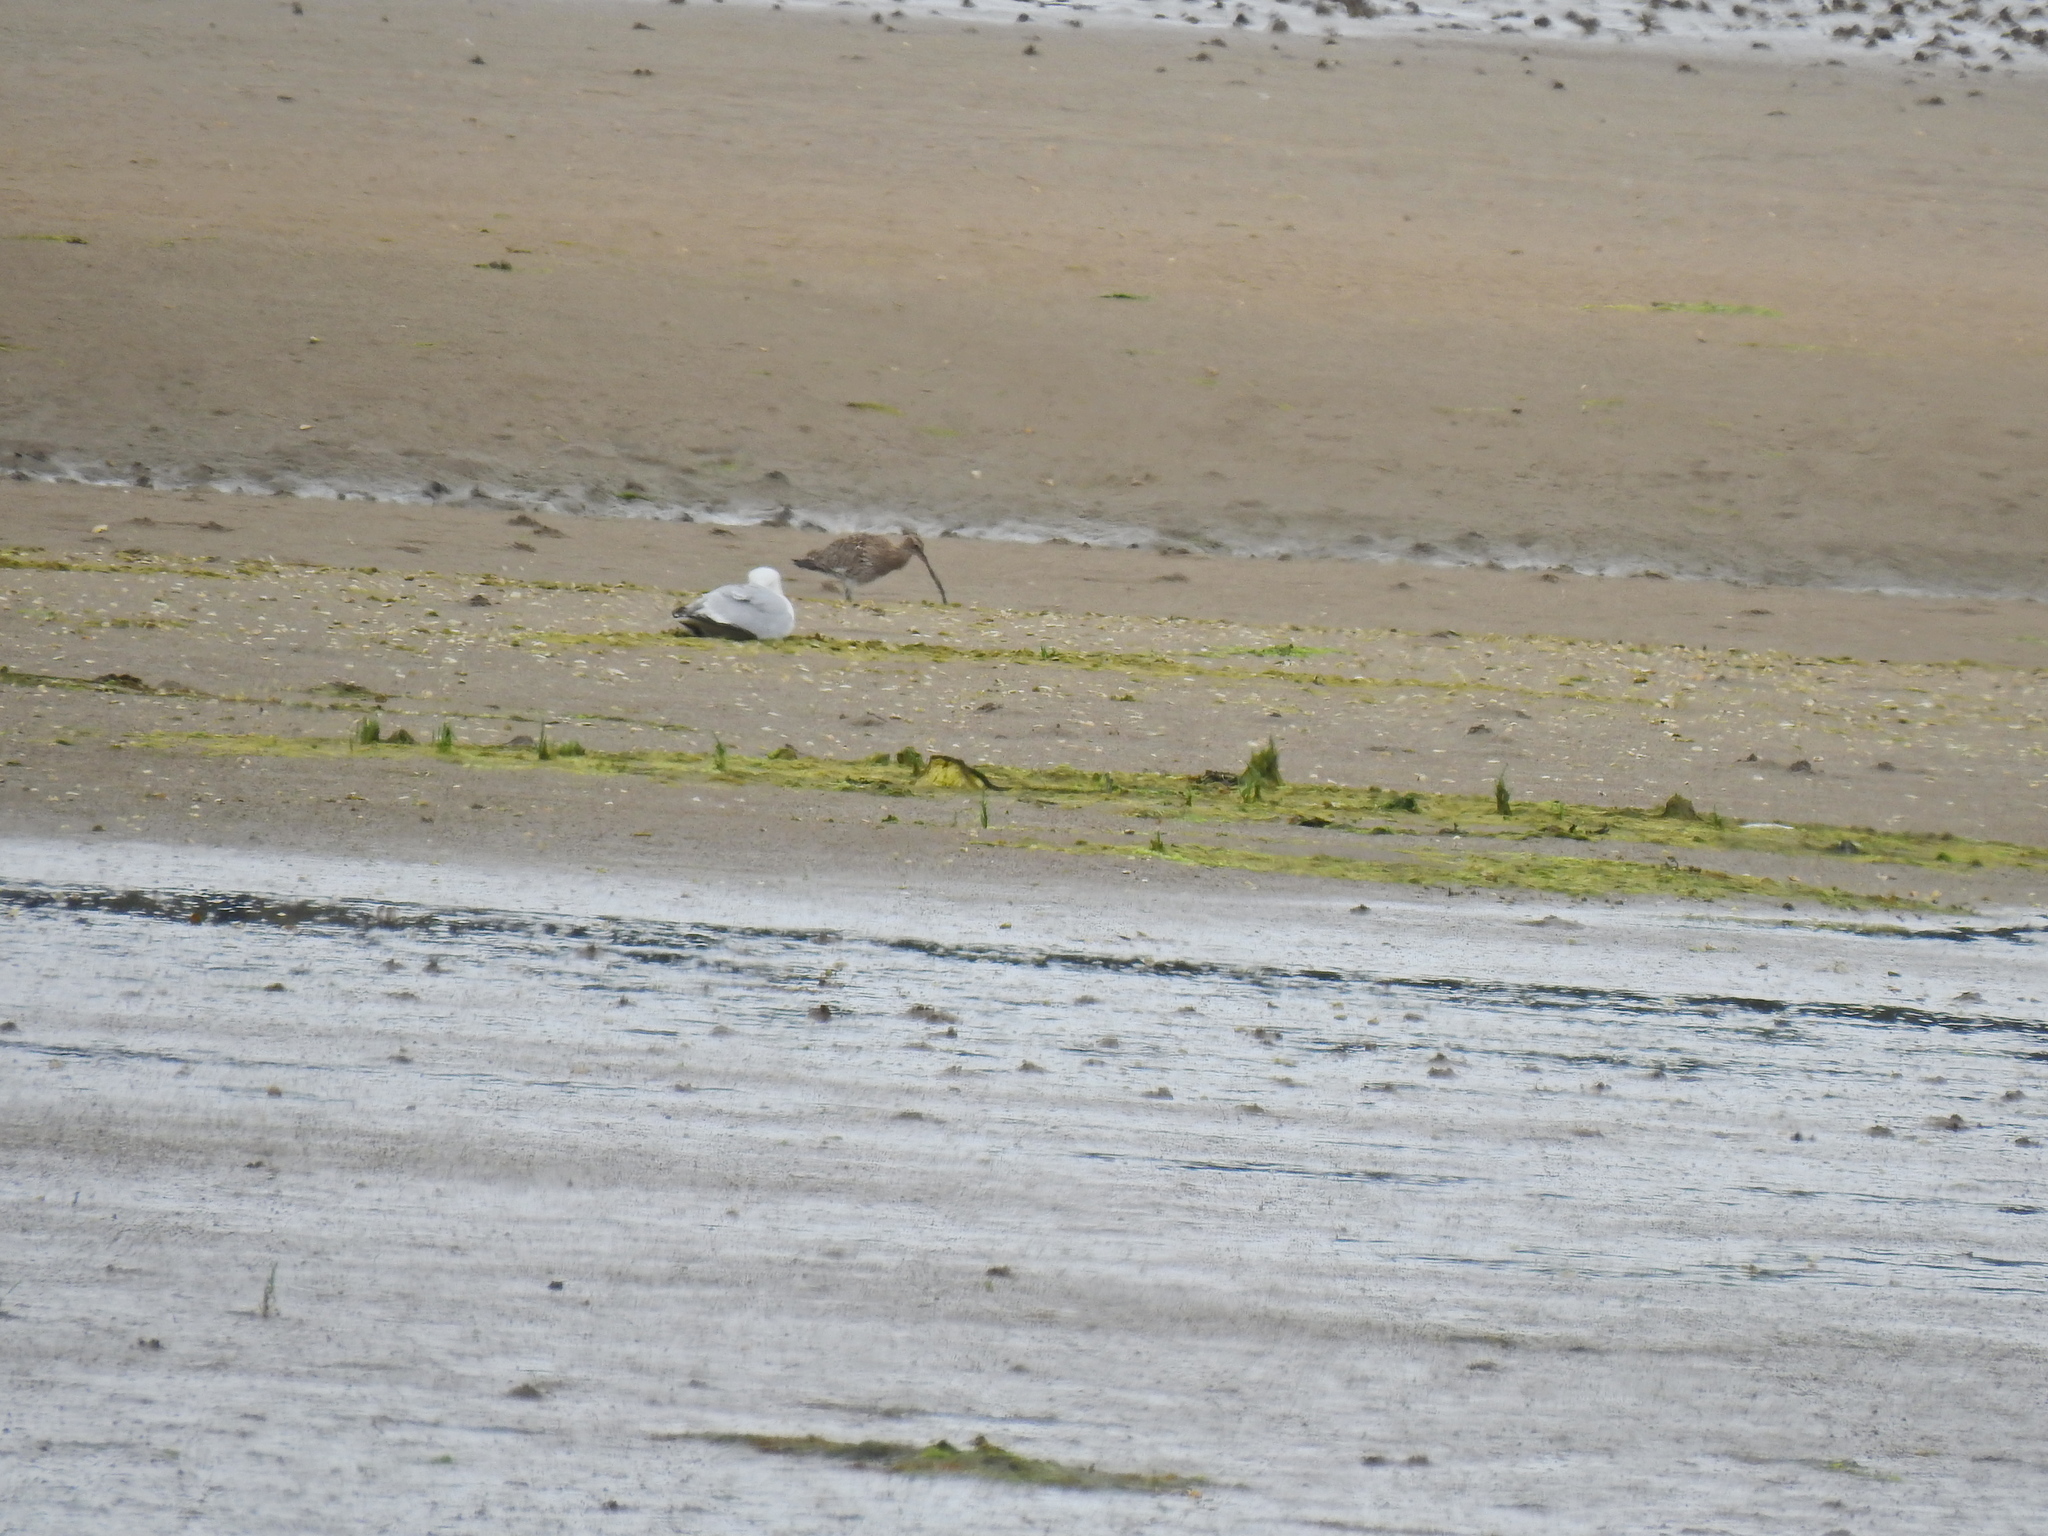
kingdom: Animalia
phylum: Chordata
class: Aves
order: Charadriiformes
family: Scolopacidae
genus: Numenius
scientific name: Numenius arquata
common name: Eurasian curlew
